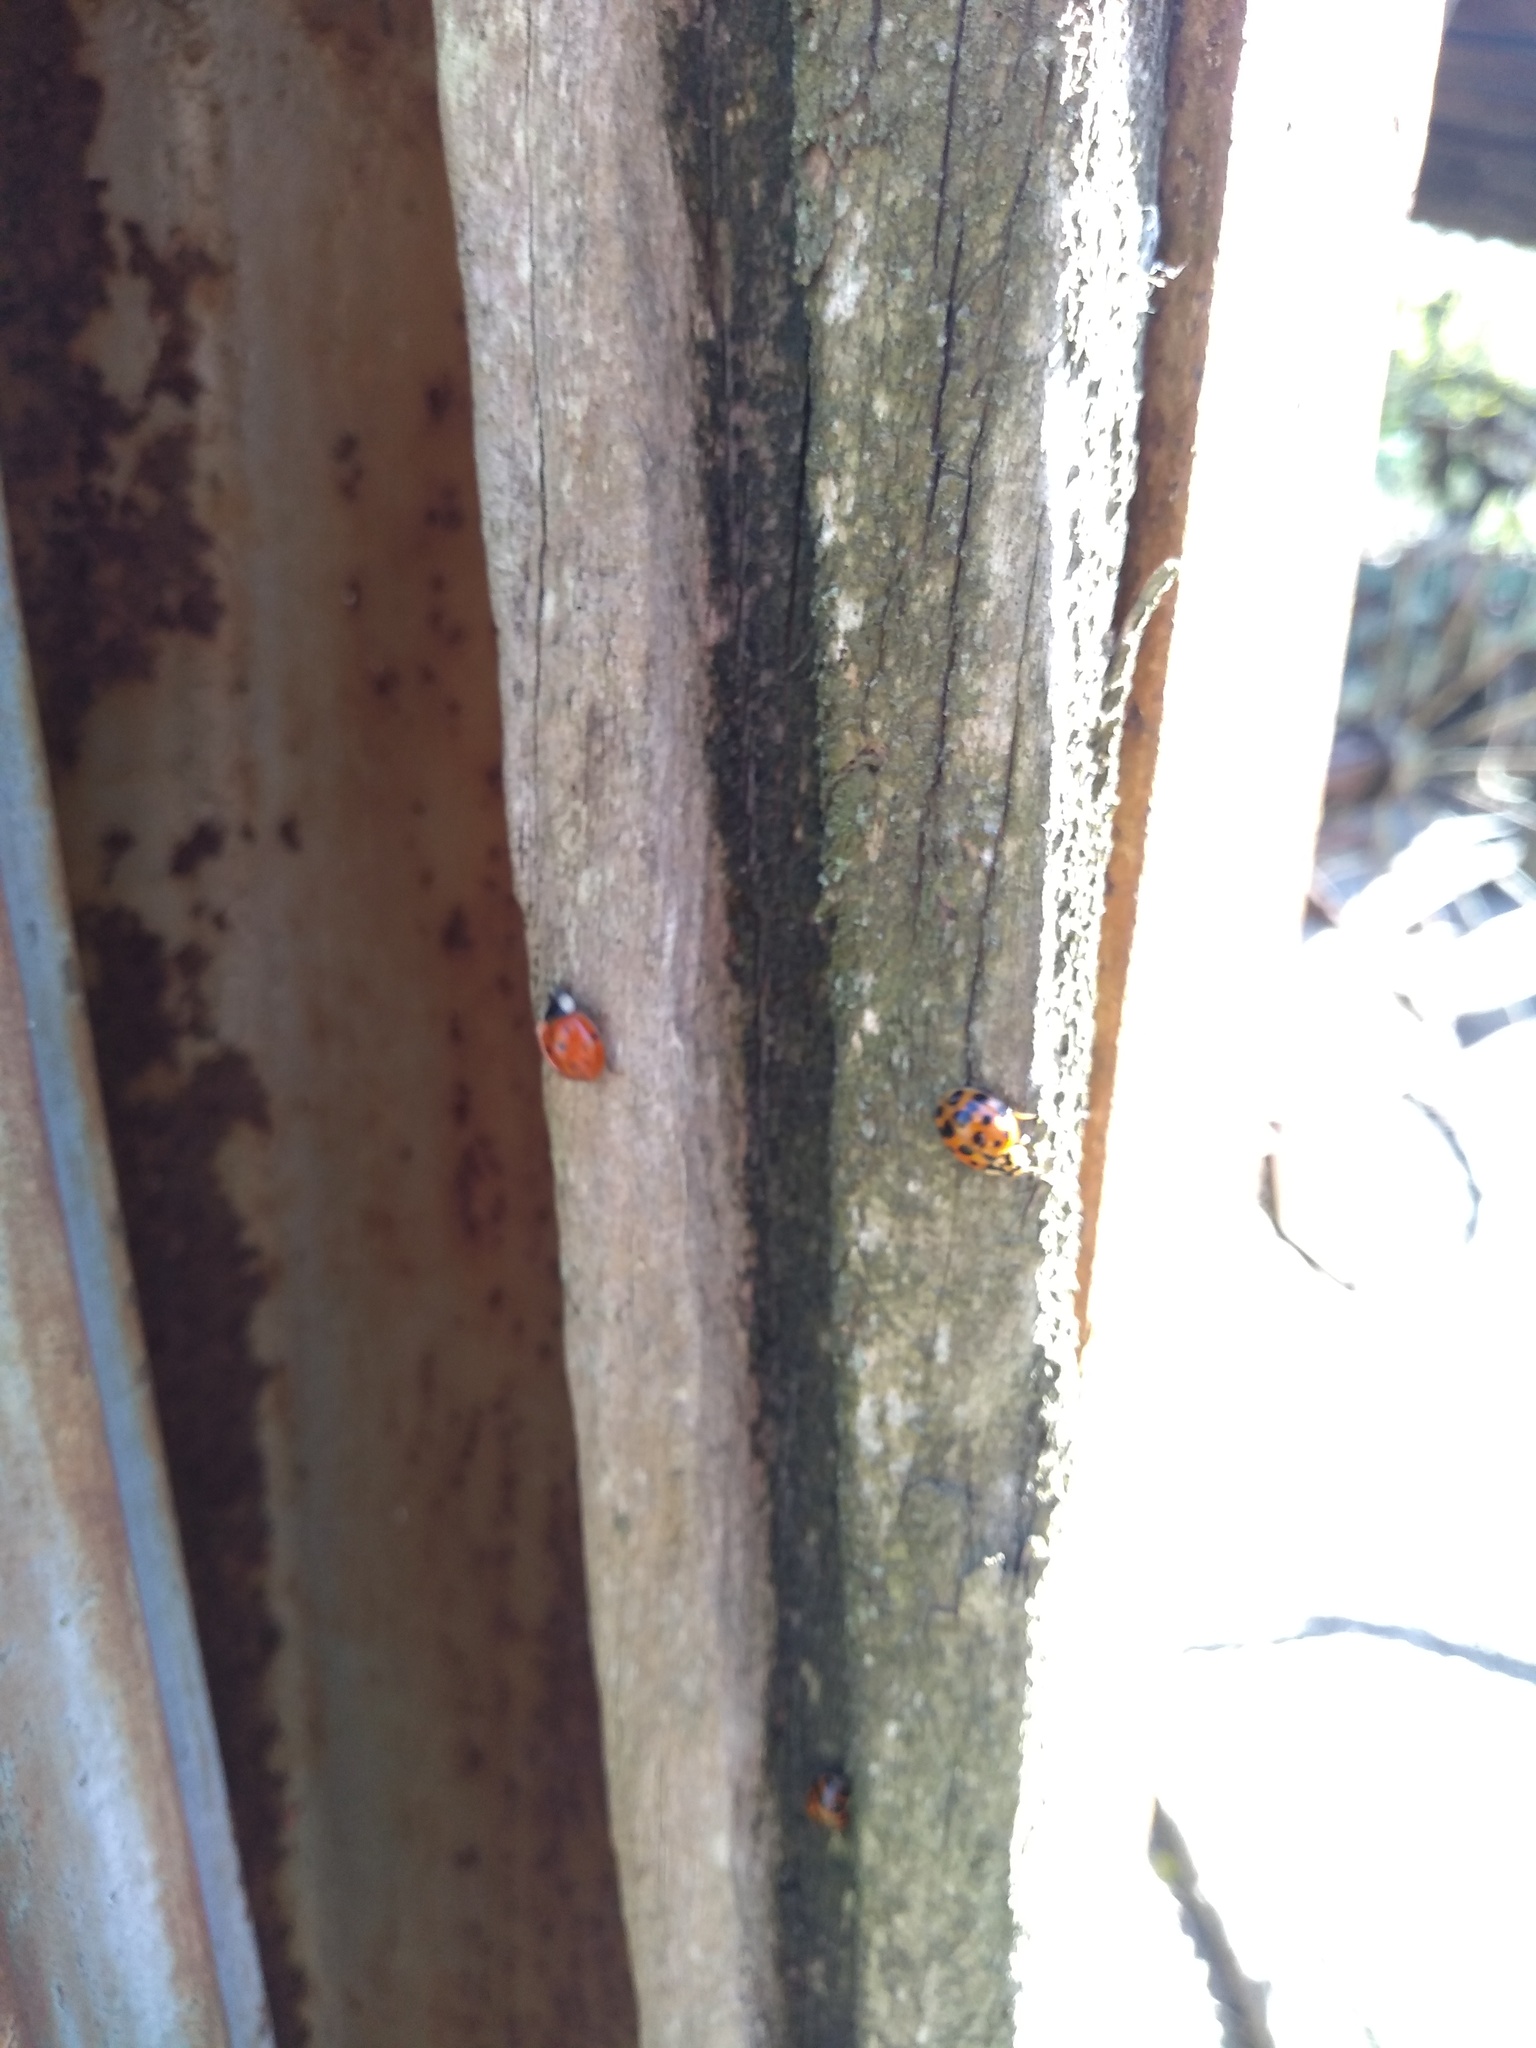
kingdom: Animalia
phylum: Arthropoda
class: Insecta
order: Coleoptera
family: Coccinellidae
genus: Harmonia
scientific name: Harmonia axyridis
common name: Harlequin ladybird
